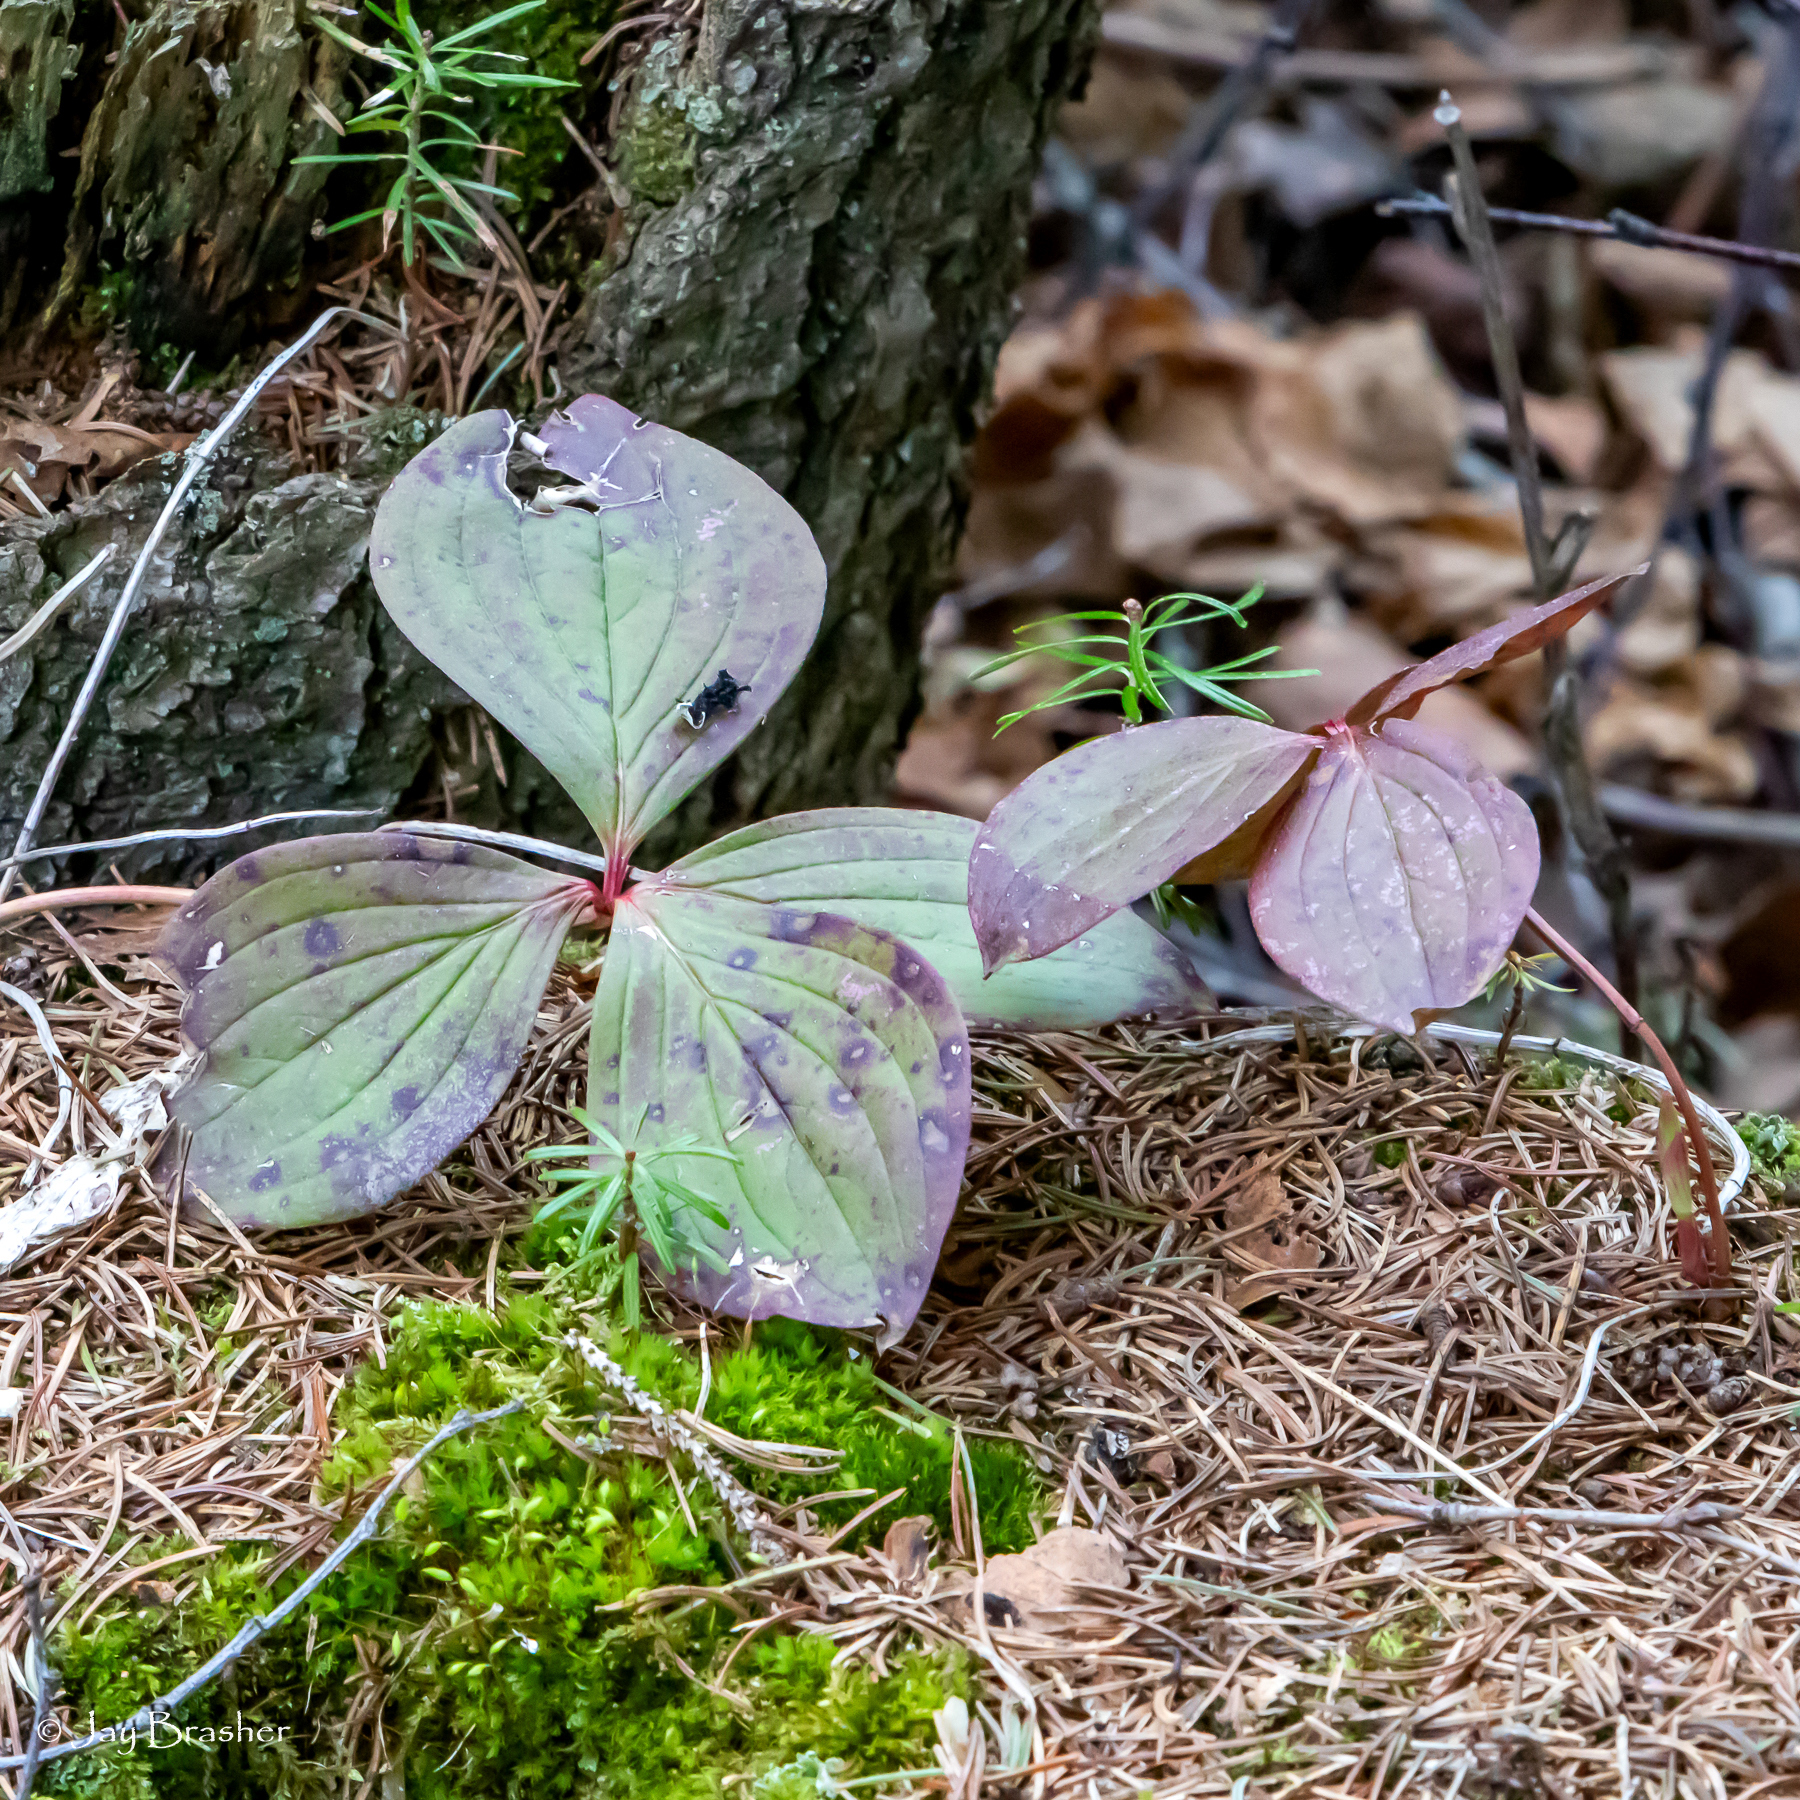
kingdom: Plantae
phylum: Tracheophyta
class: Magnoliopsida
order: Cornales
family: Cornaceae
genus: Cornus
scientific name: Cornus canadensis
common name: Creeping dogwood
